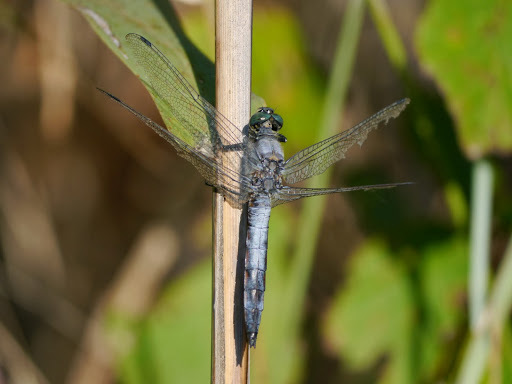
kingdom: Animalia
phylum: Arthropoda
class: Insecta
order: Odonata
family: Libellulidae
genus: Orthetrum
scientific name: Orthetrum cancellatum
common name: Black-tailed skimmer
